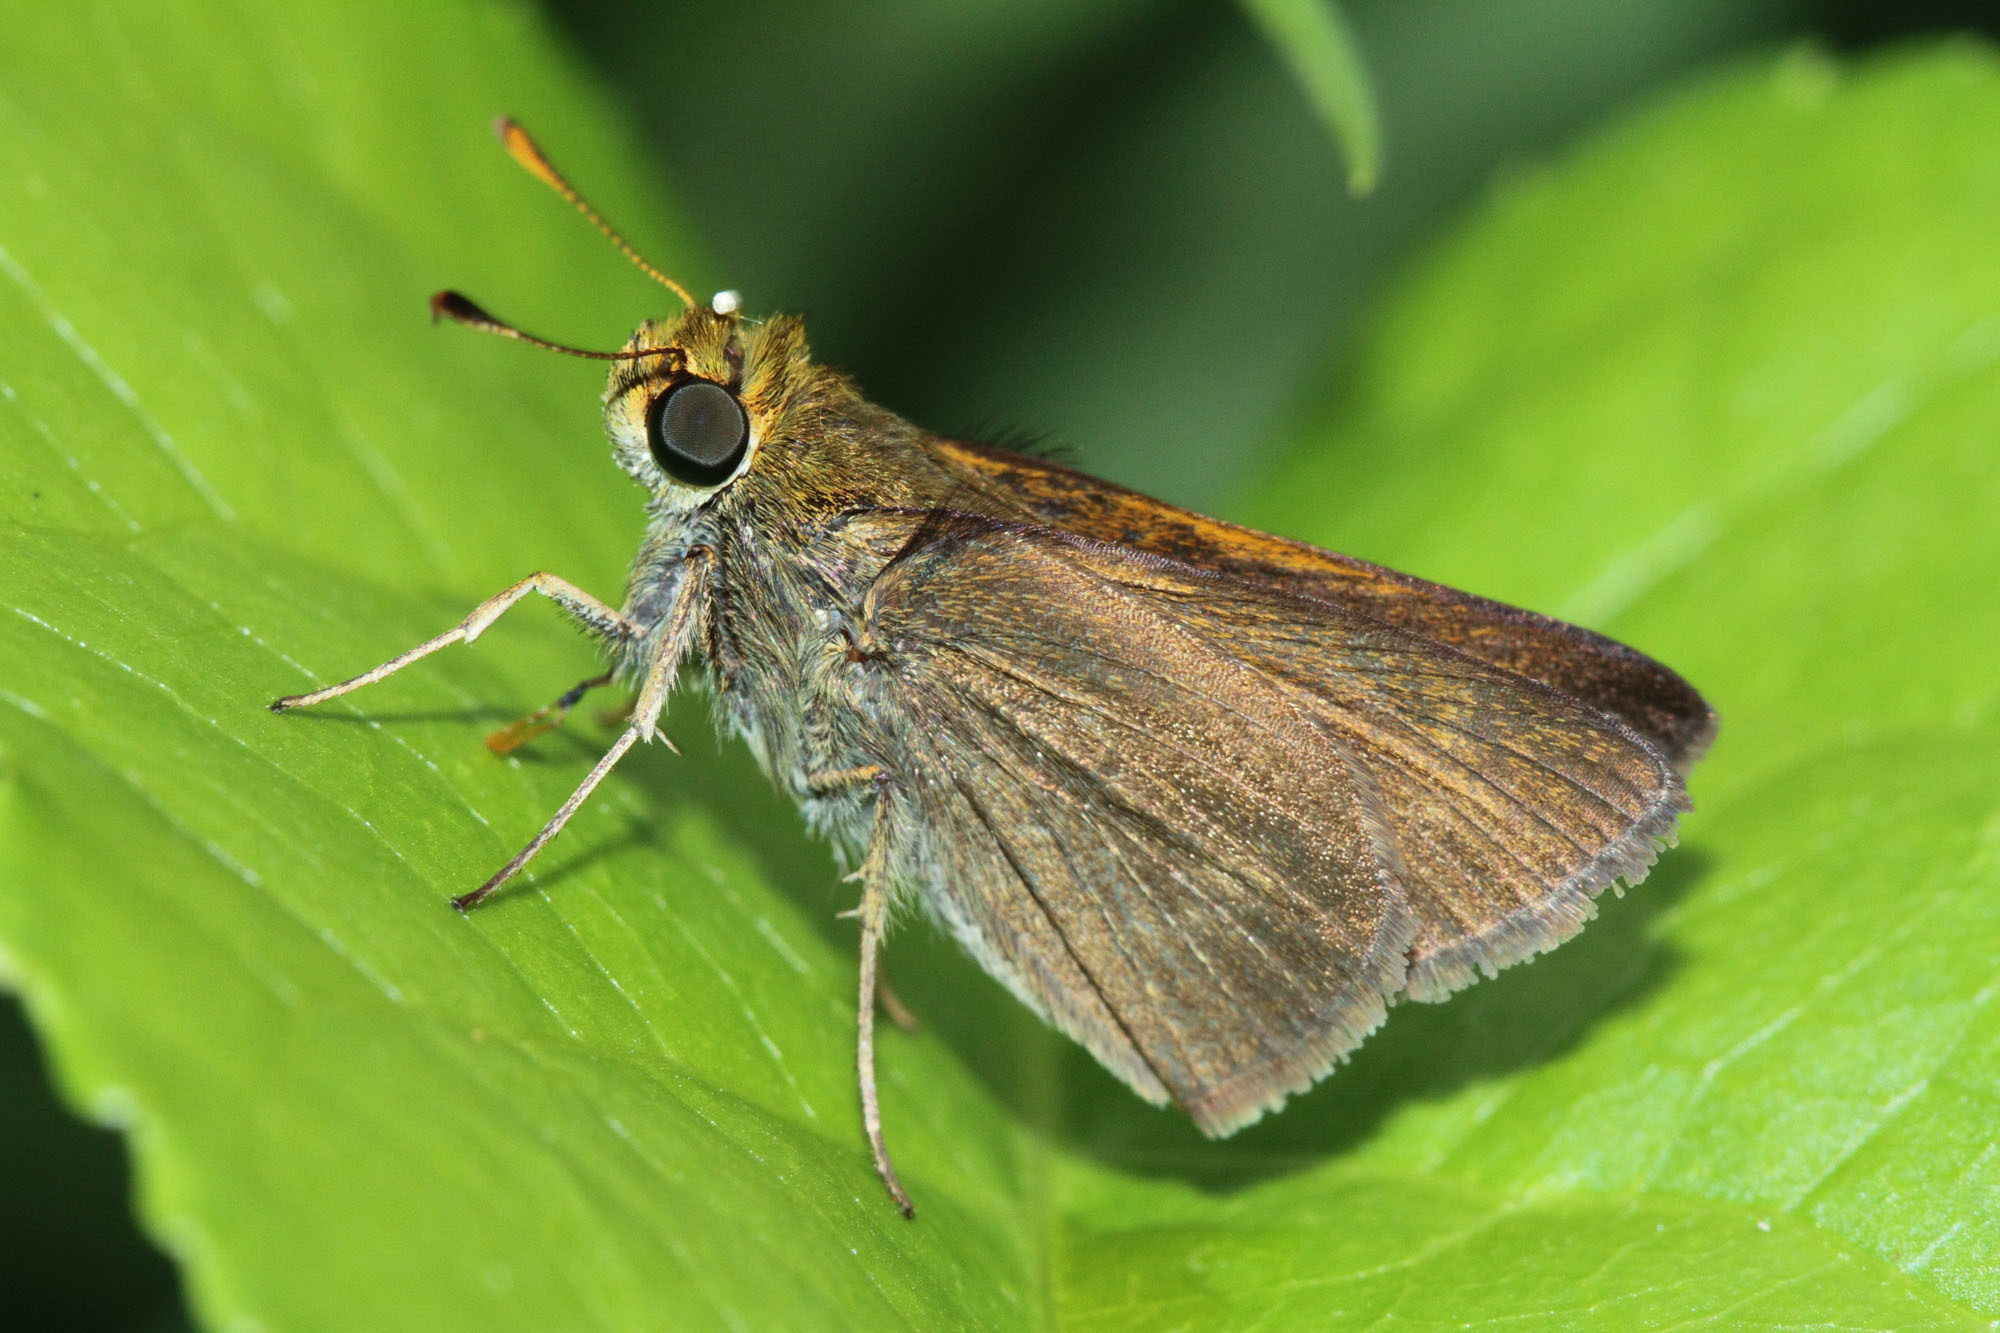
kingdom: Animalia
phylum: Arthropoda
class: Insecta
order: Lepidoptera
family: Hesperiidae
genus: Euphyes
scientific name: Euphyes vestris
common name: Dun skipper
